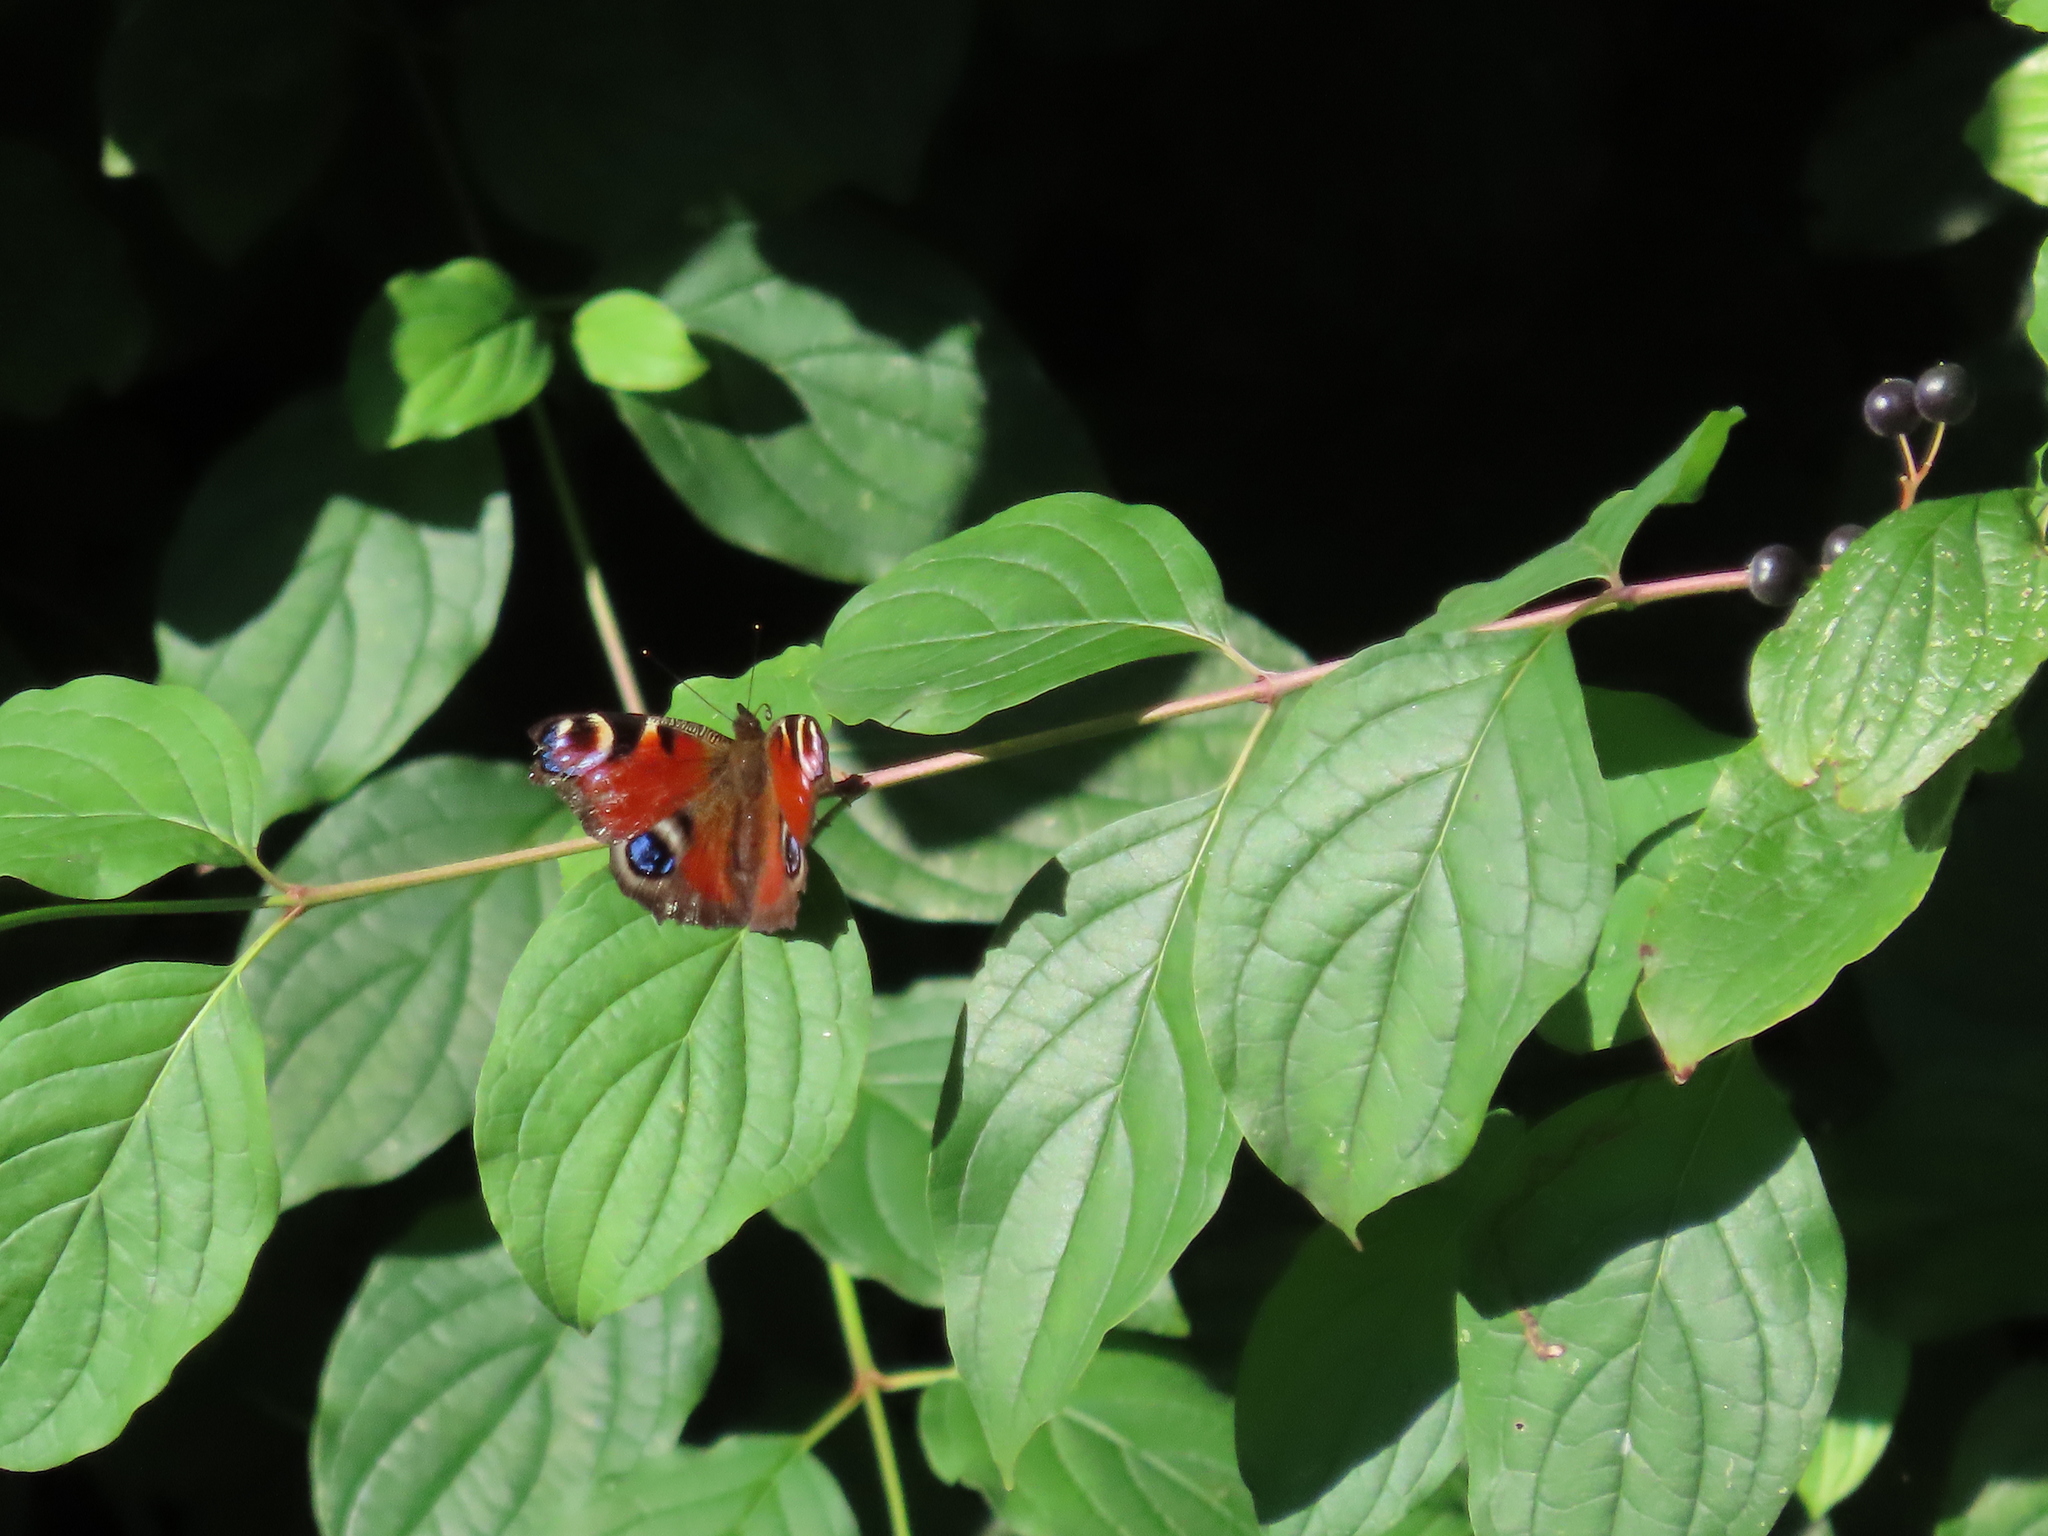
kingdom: Animalia
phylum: Arthropoda
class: Insecta
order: Lepidoptera
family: Nymphalidae
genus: Aglais
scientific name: Aglais io
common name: Peacock
